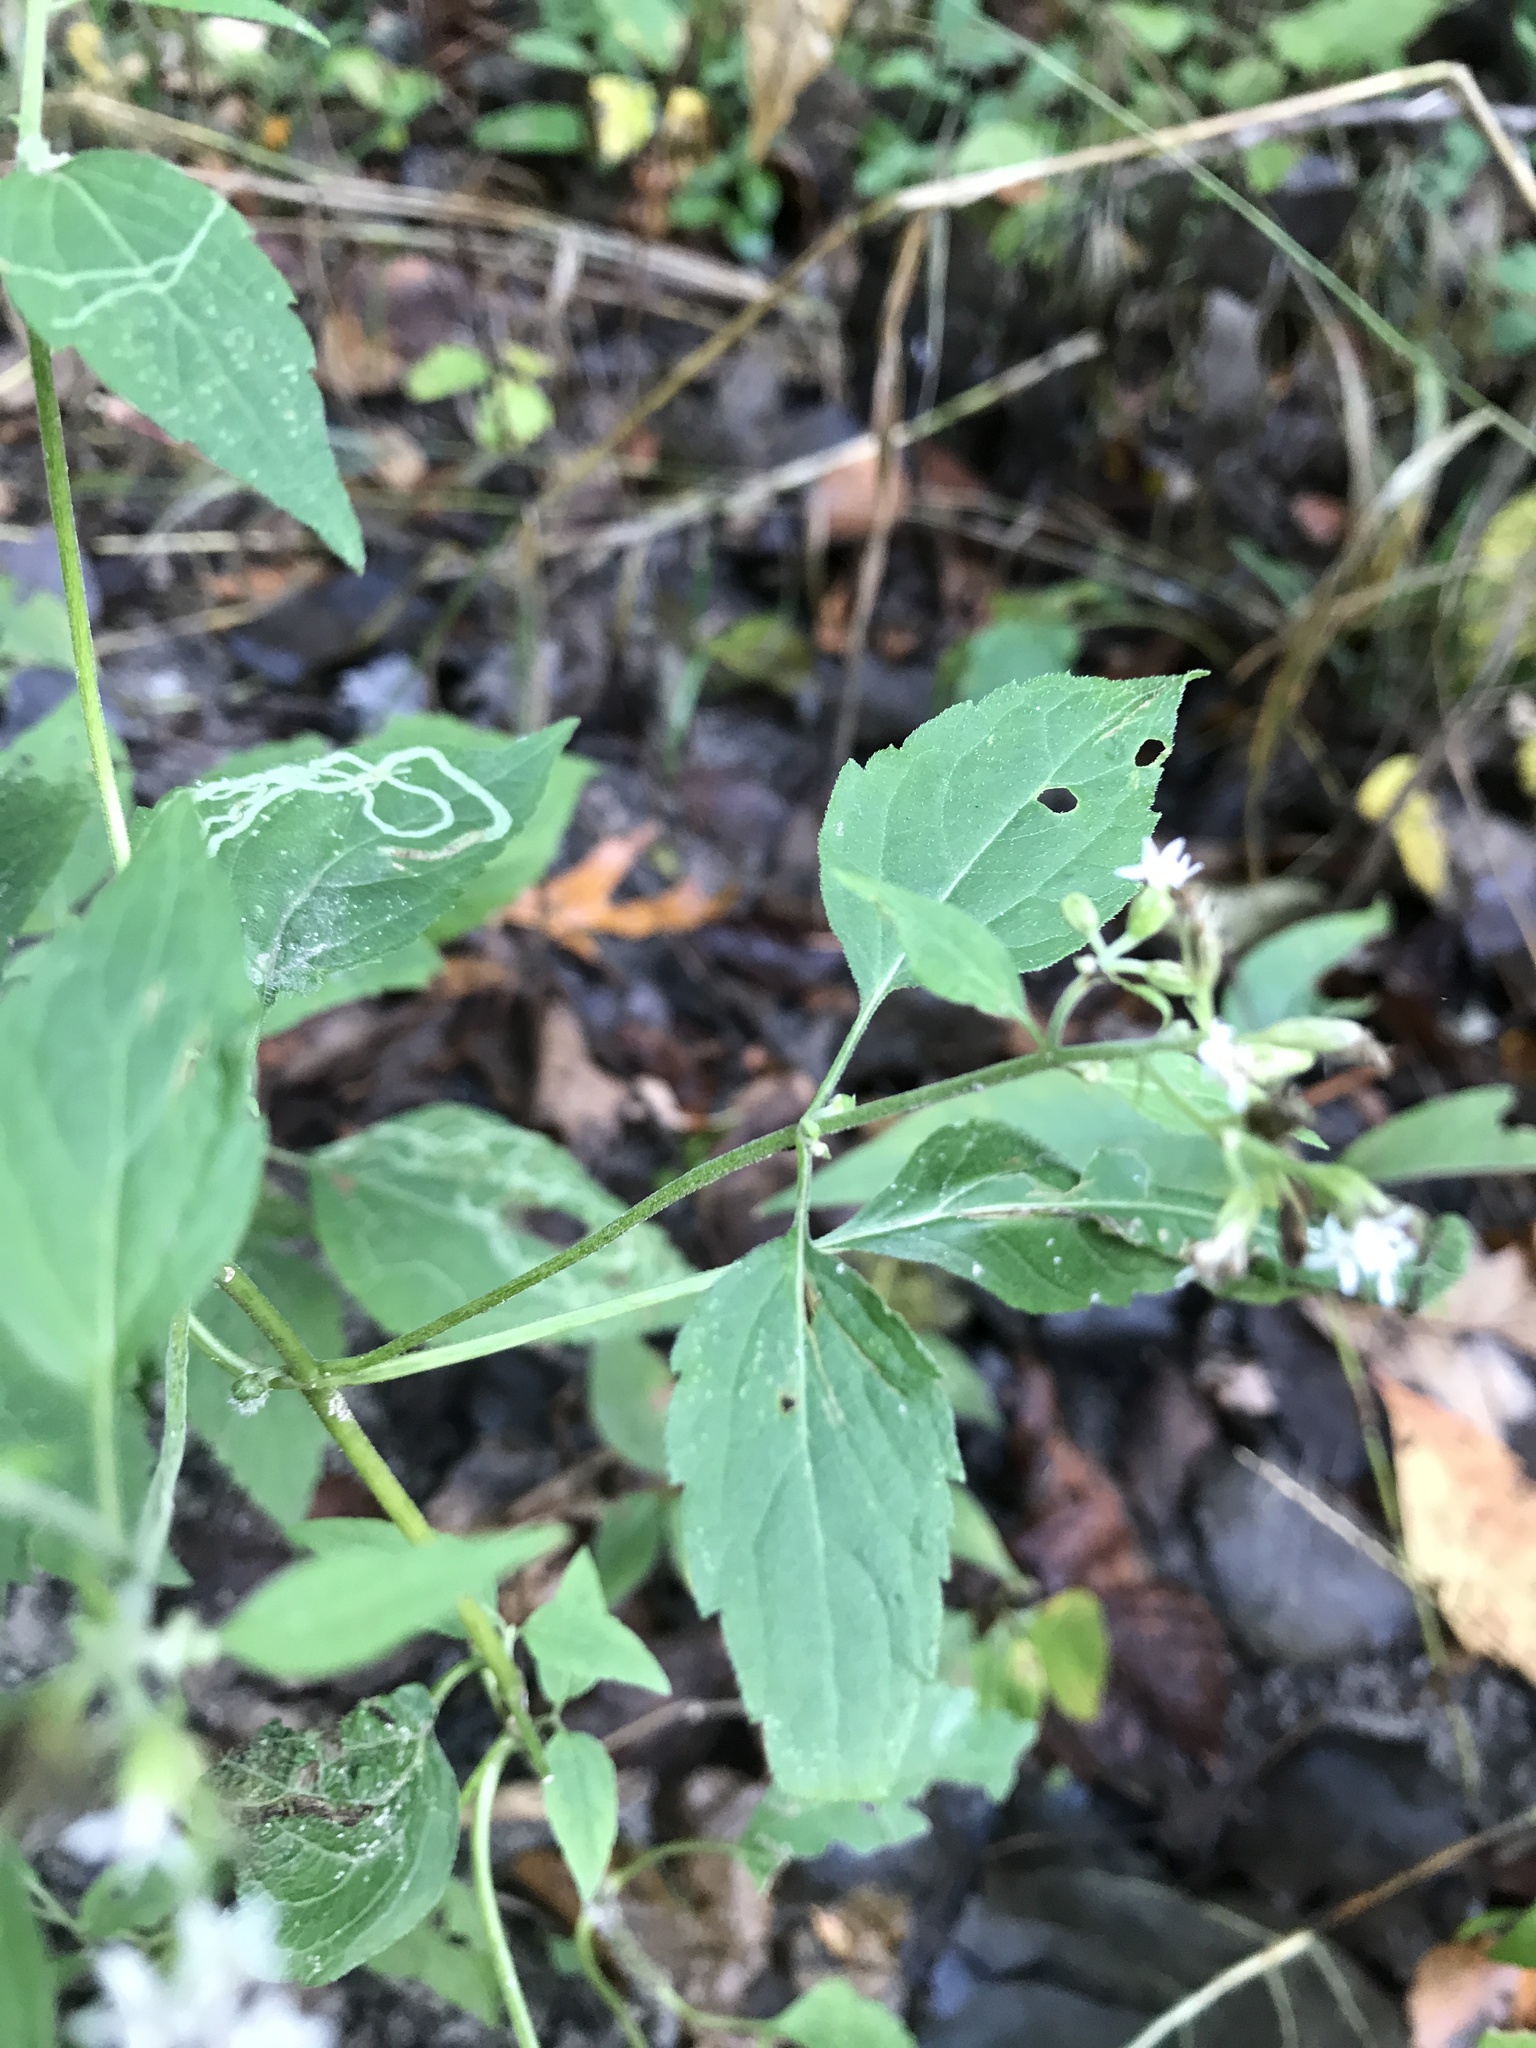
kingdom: Plantae
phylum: Tracheophyta
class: Magnoliopsida
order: Asterales
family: Asteraceae
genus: Ageratina
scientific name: Ageratina altissima
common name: White snakeroot
